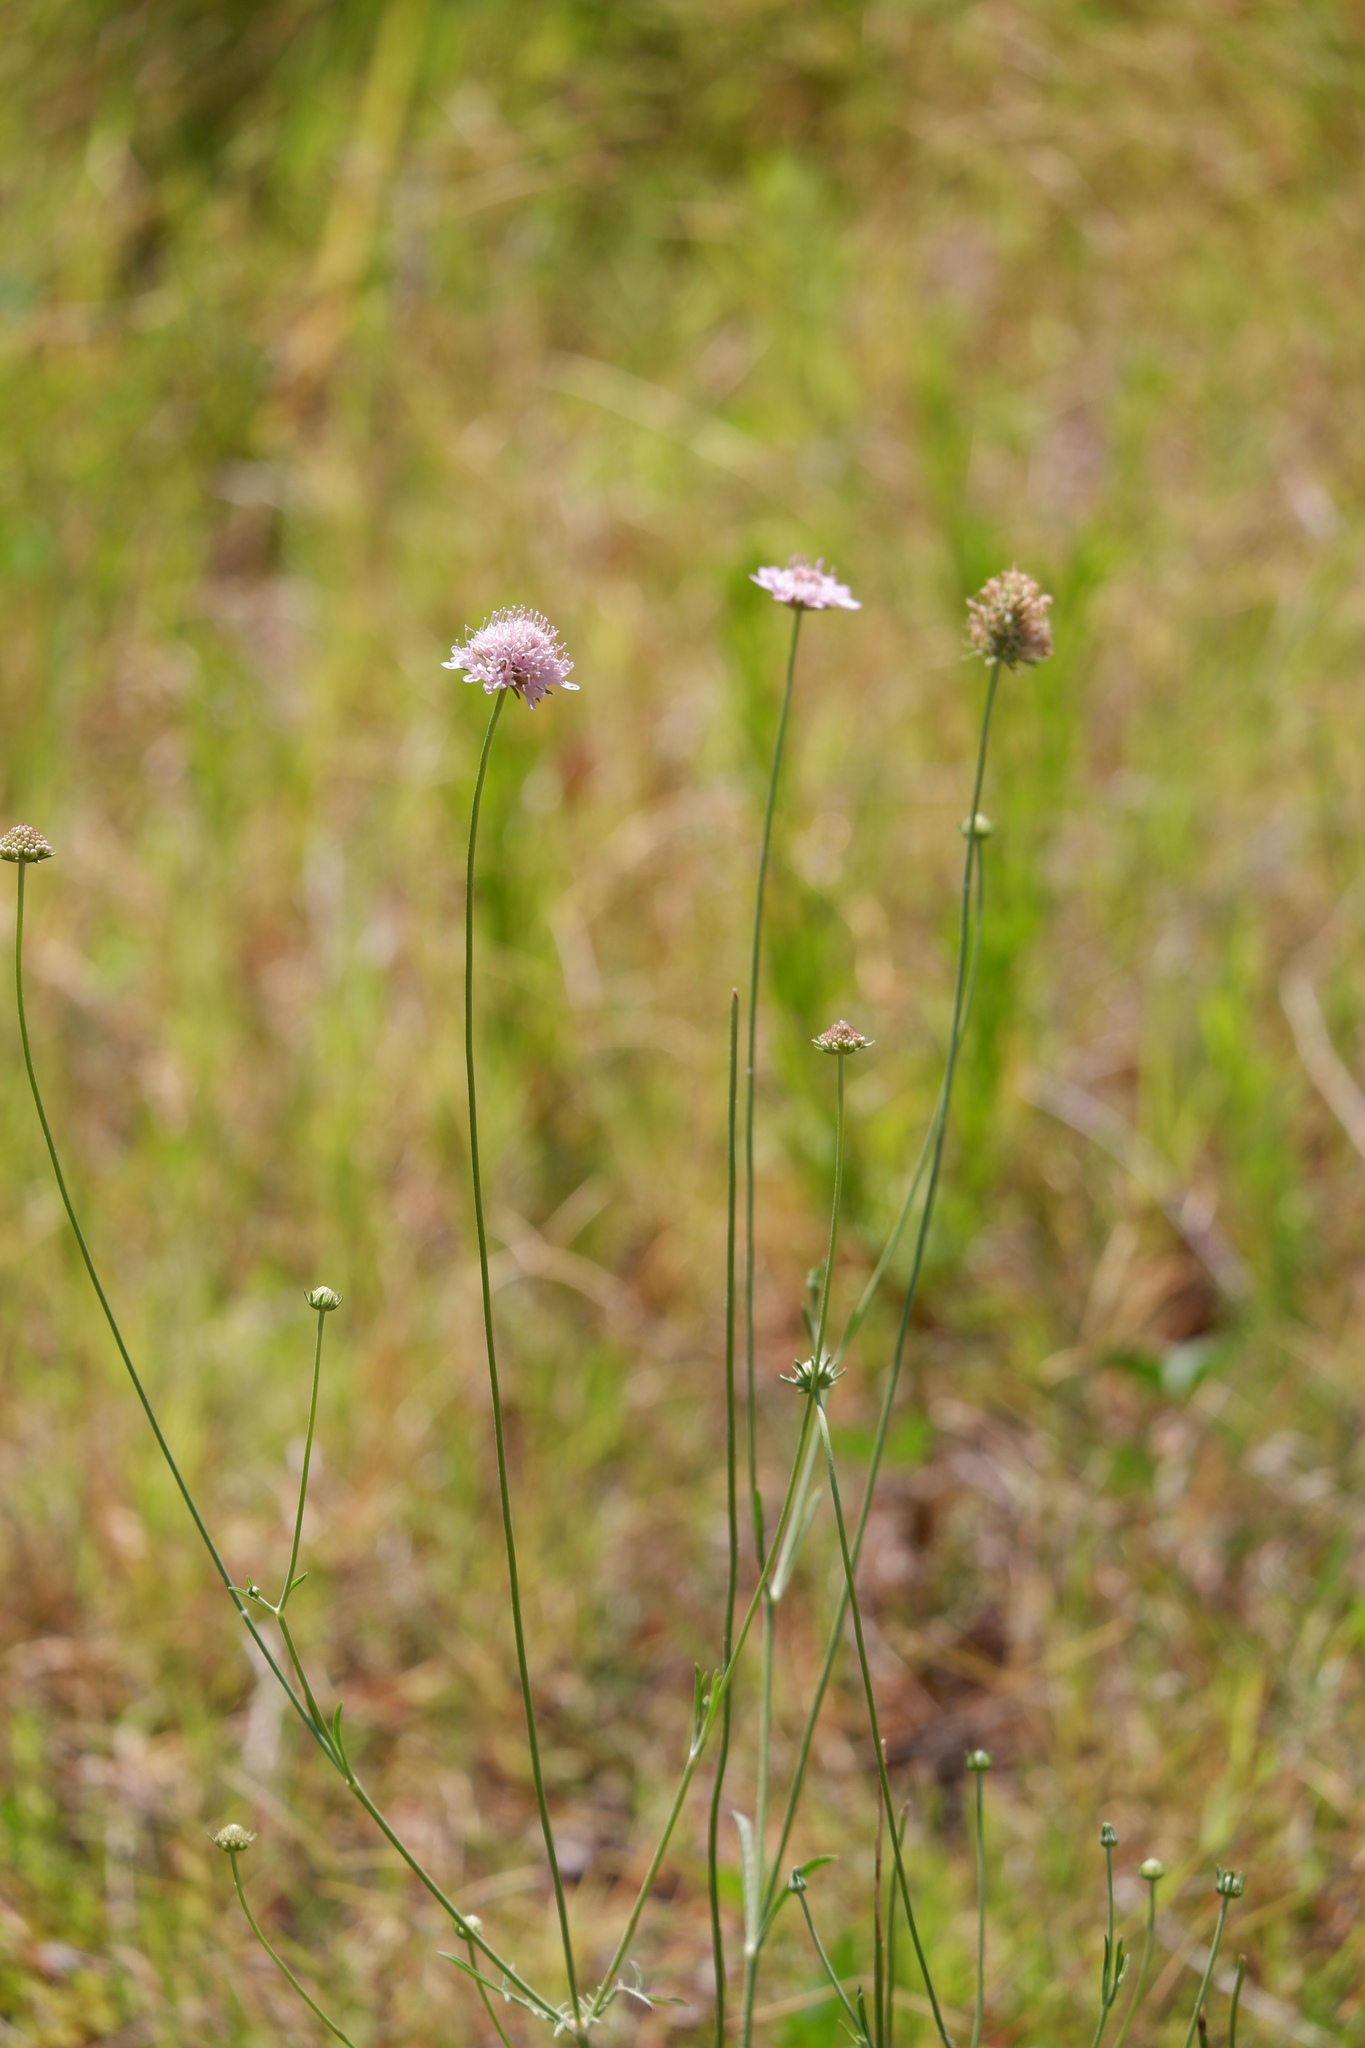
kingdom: Plantae
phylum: Tracheophyta
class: Magnoliopsida
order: Dipsacales
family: Caprifoliaceae
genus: Sixalix
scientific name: Sixalix atropurpurea
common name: Sweet scabious
